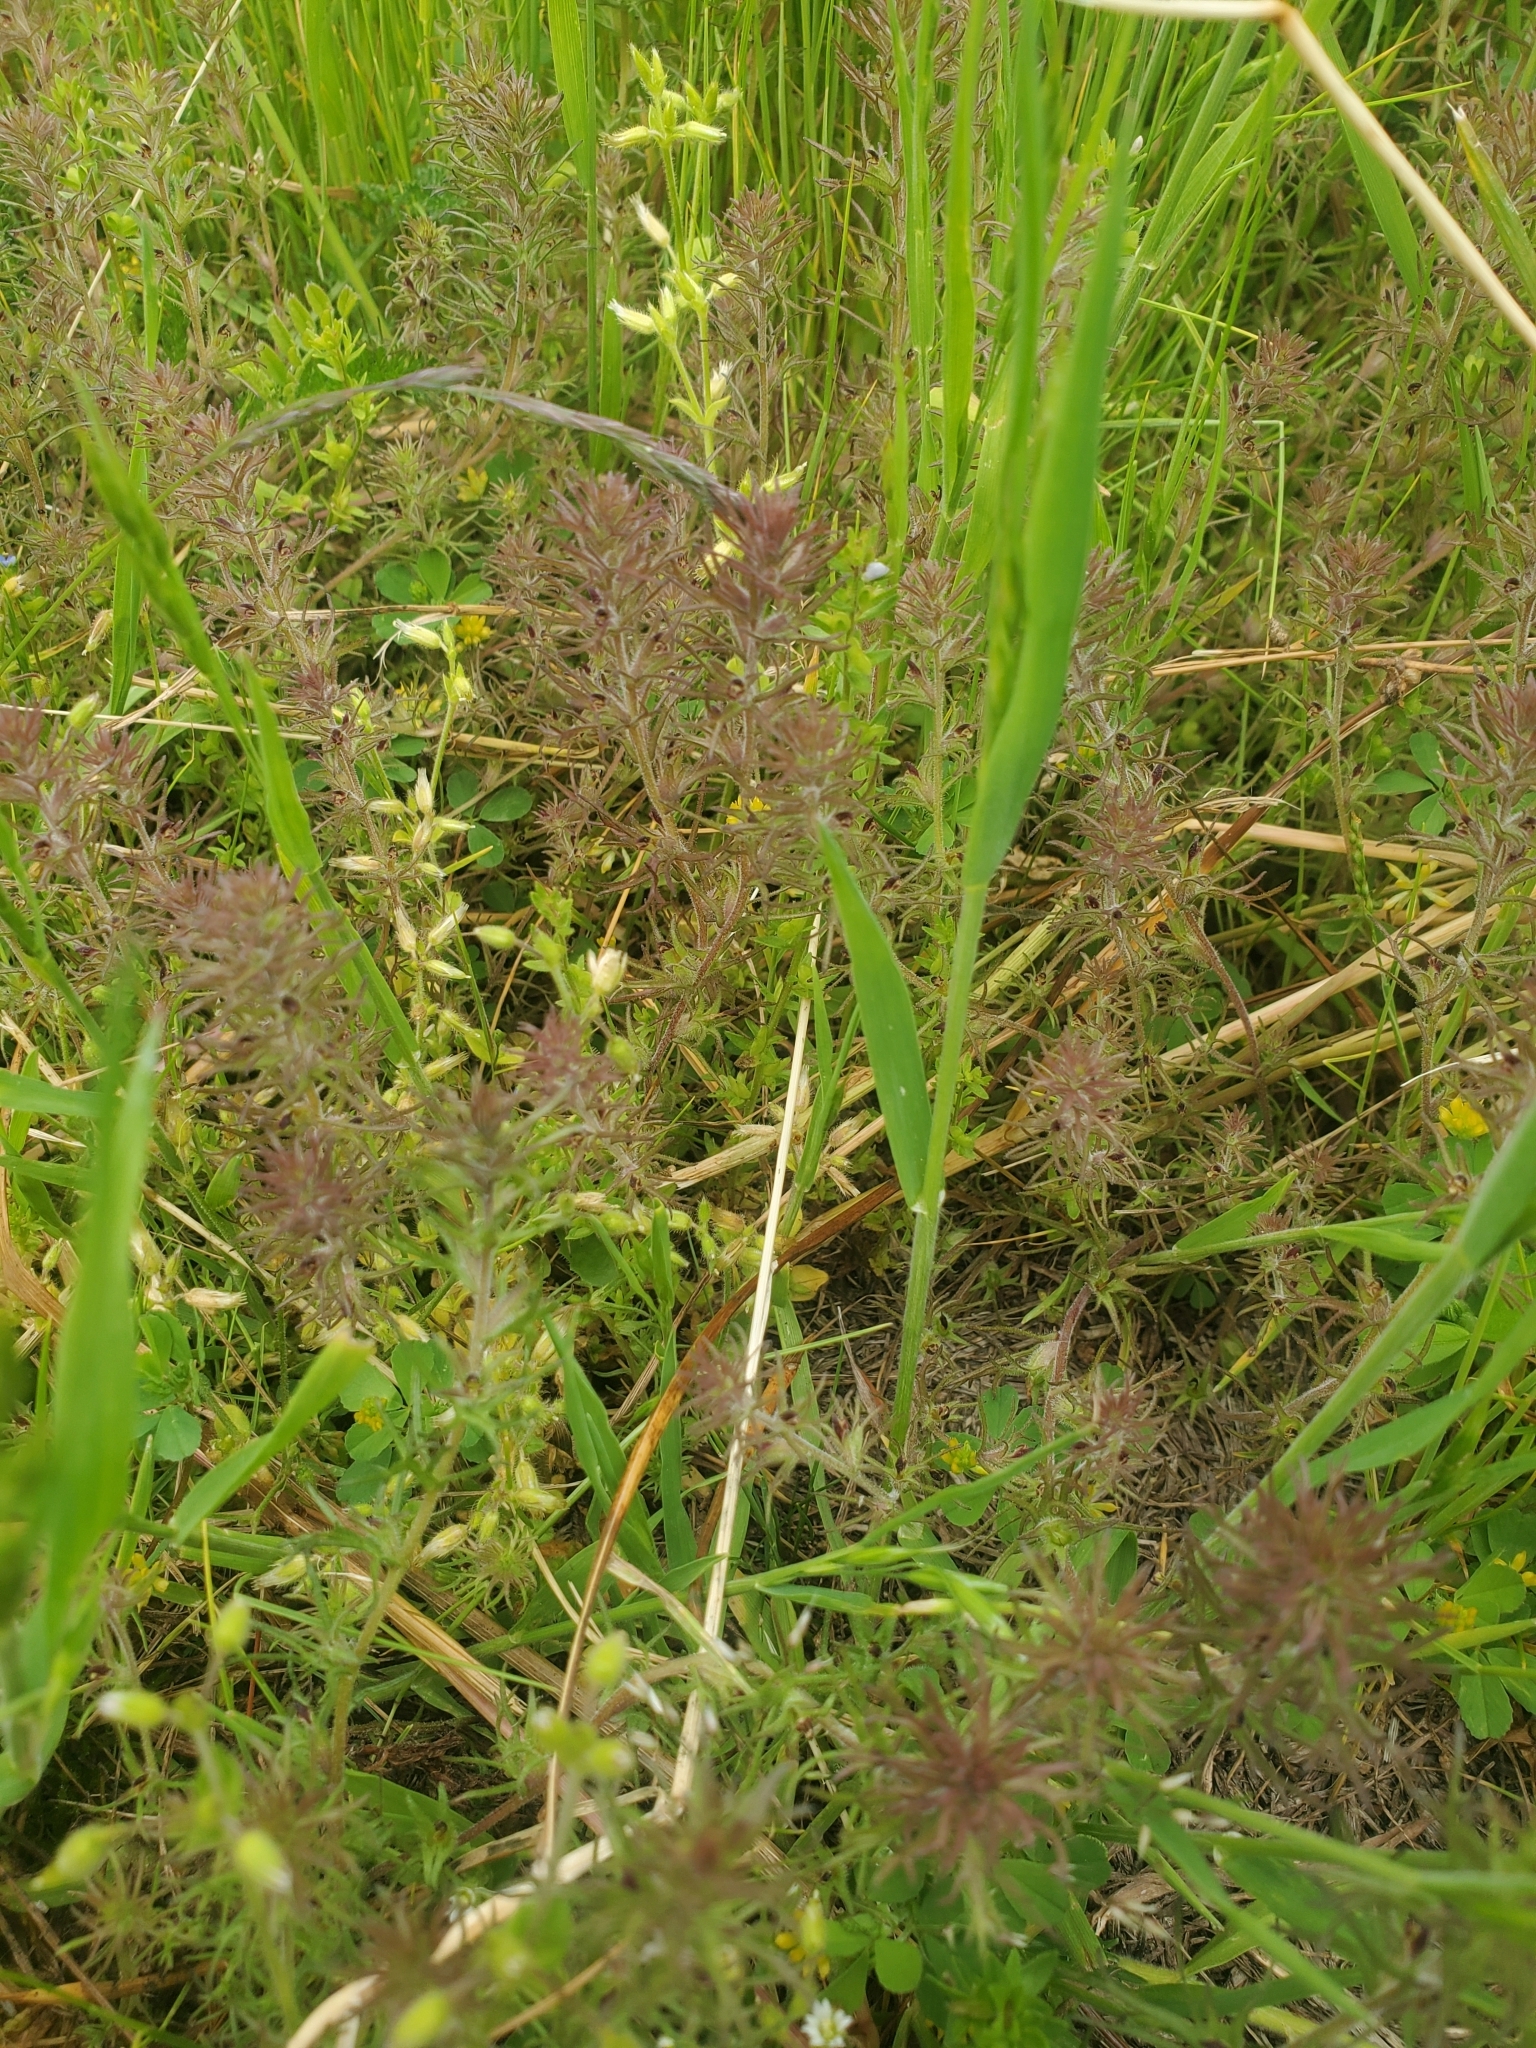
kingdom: Plantae
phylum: Tracheophyta
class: Magnoliopsida
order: Lamiales
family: Orobanchaceae
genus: Triphysaria
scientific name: Triphysaria pusilla
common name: Dwarf false owl-clover
